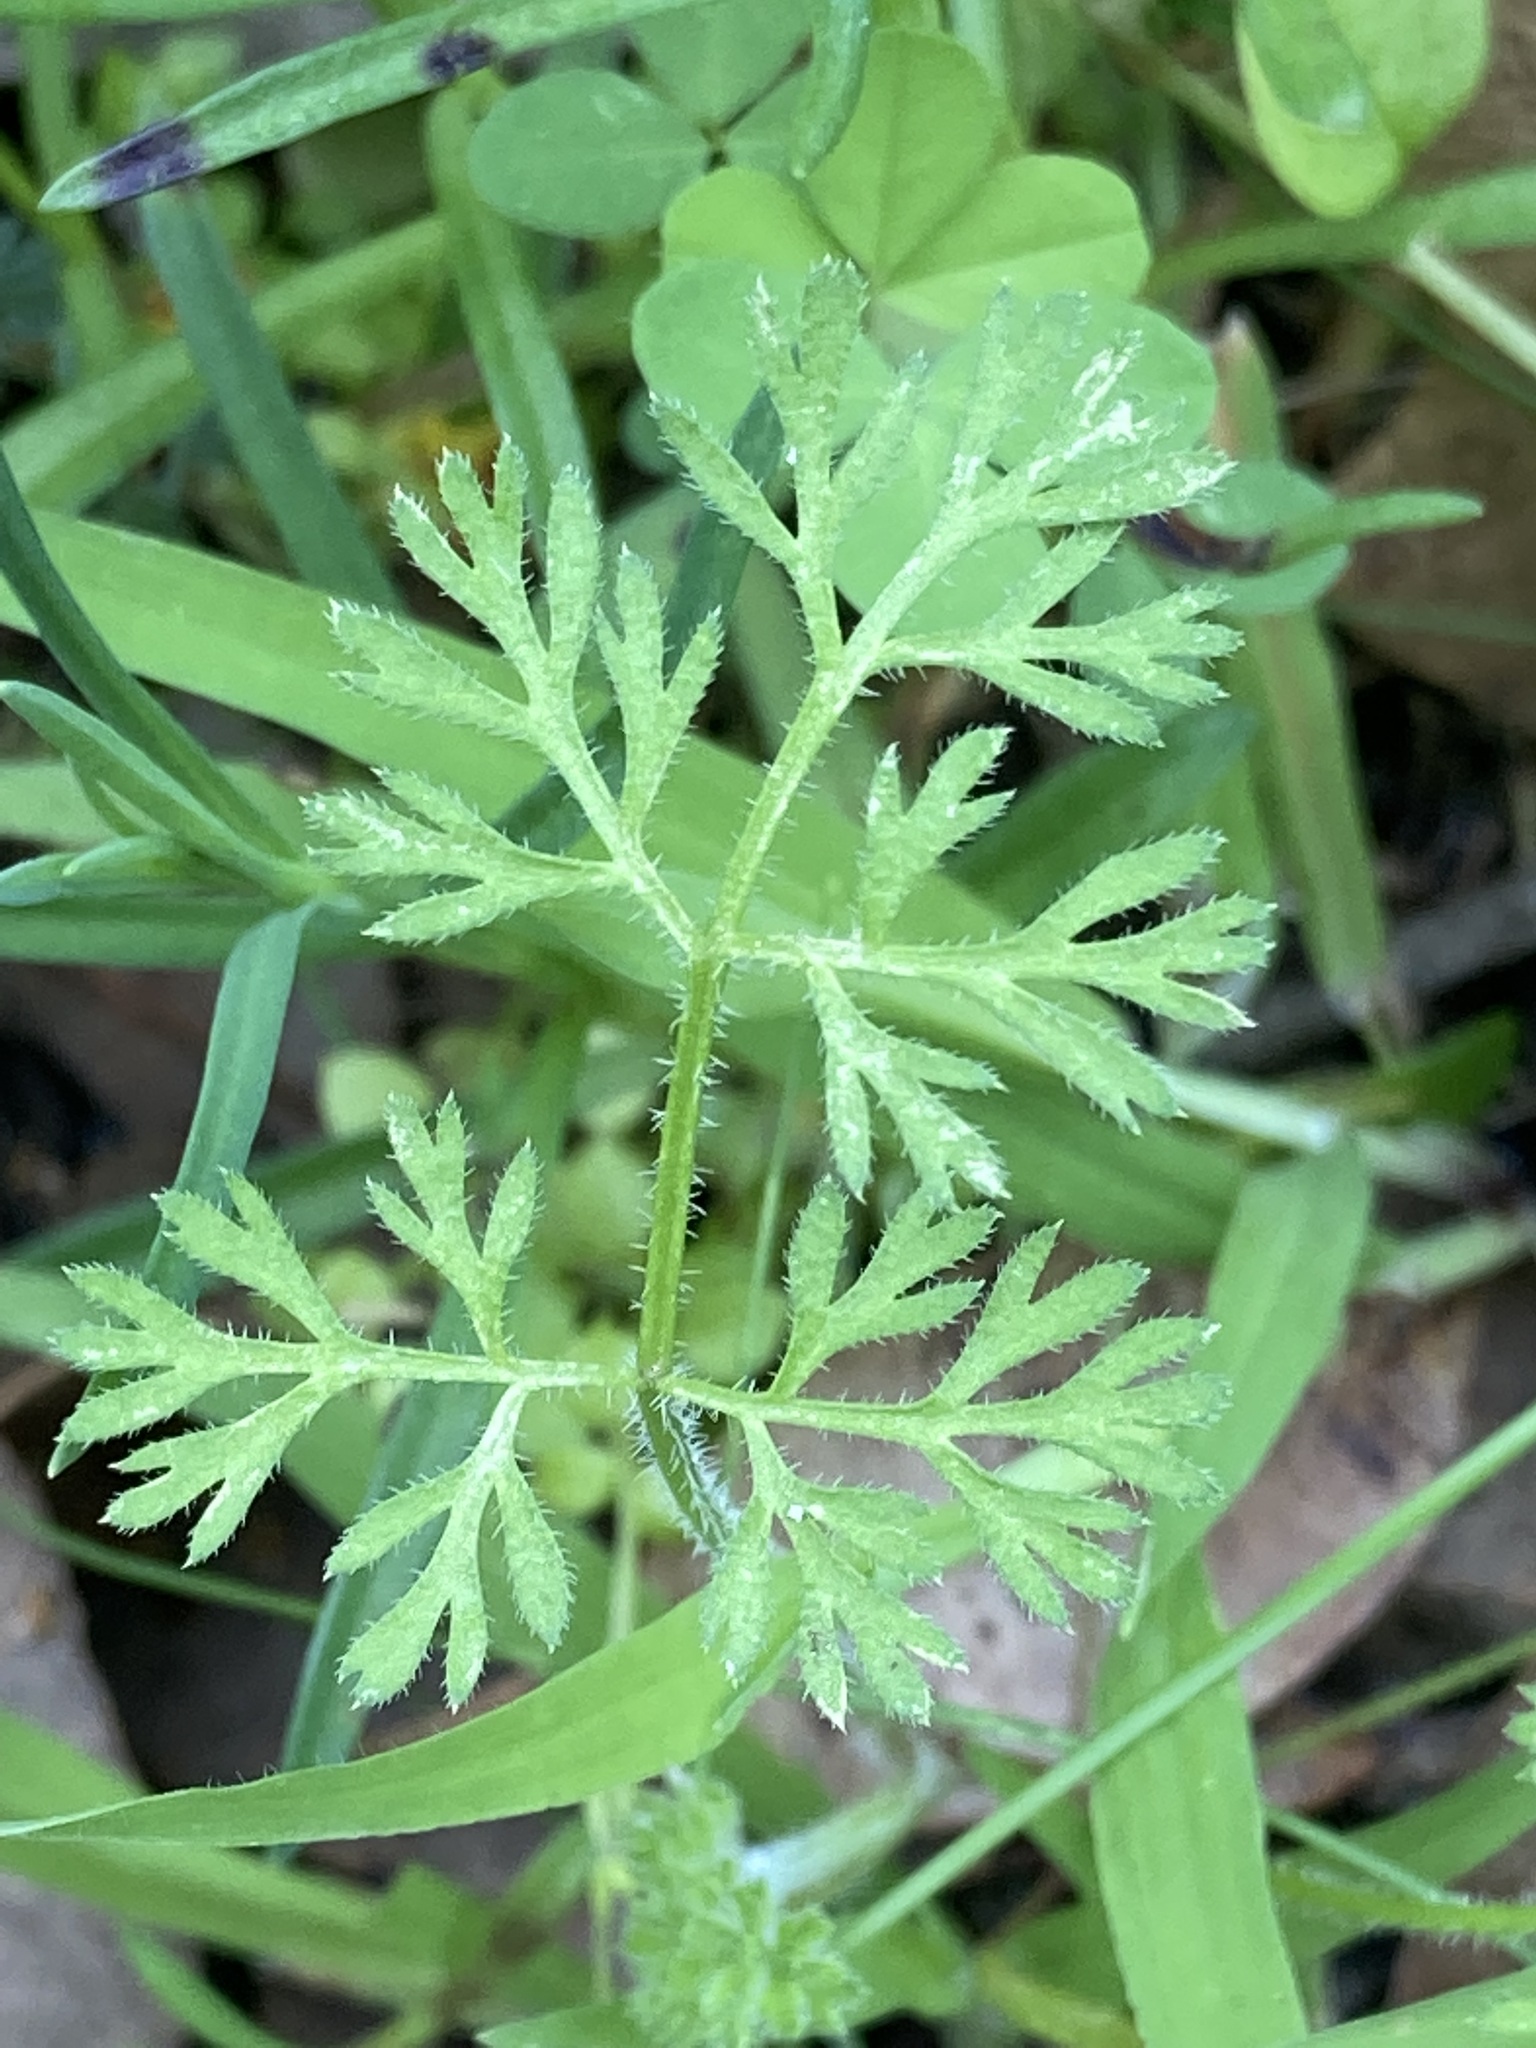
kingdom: Plantae
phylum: Tracheophyta
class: Magnoliopsida
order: Apiales
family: Apiaceae
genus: Daucus
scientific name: Daucus glochidiatus
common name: Australian carrot
